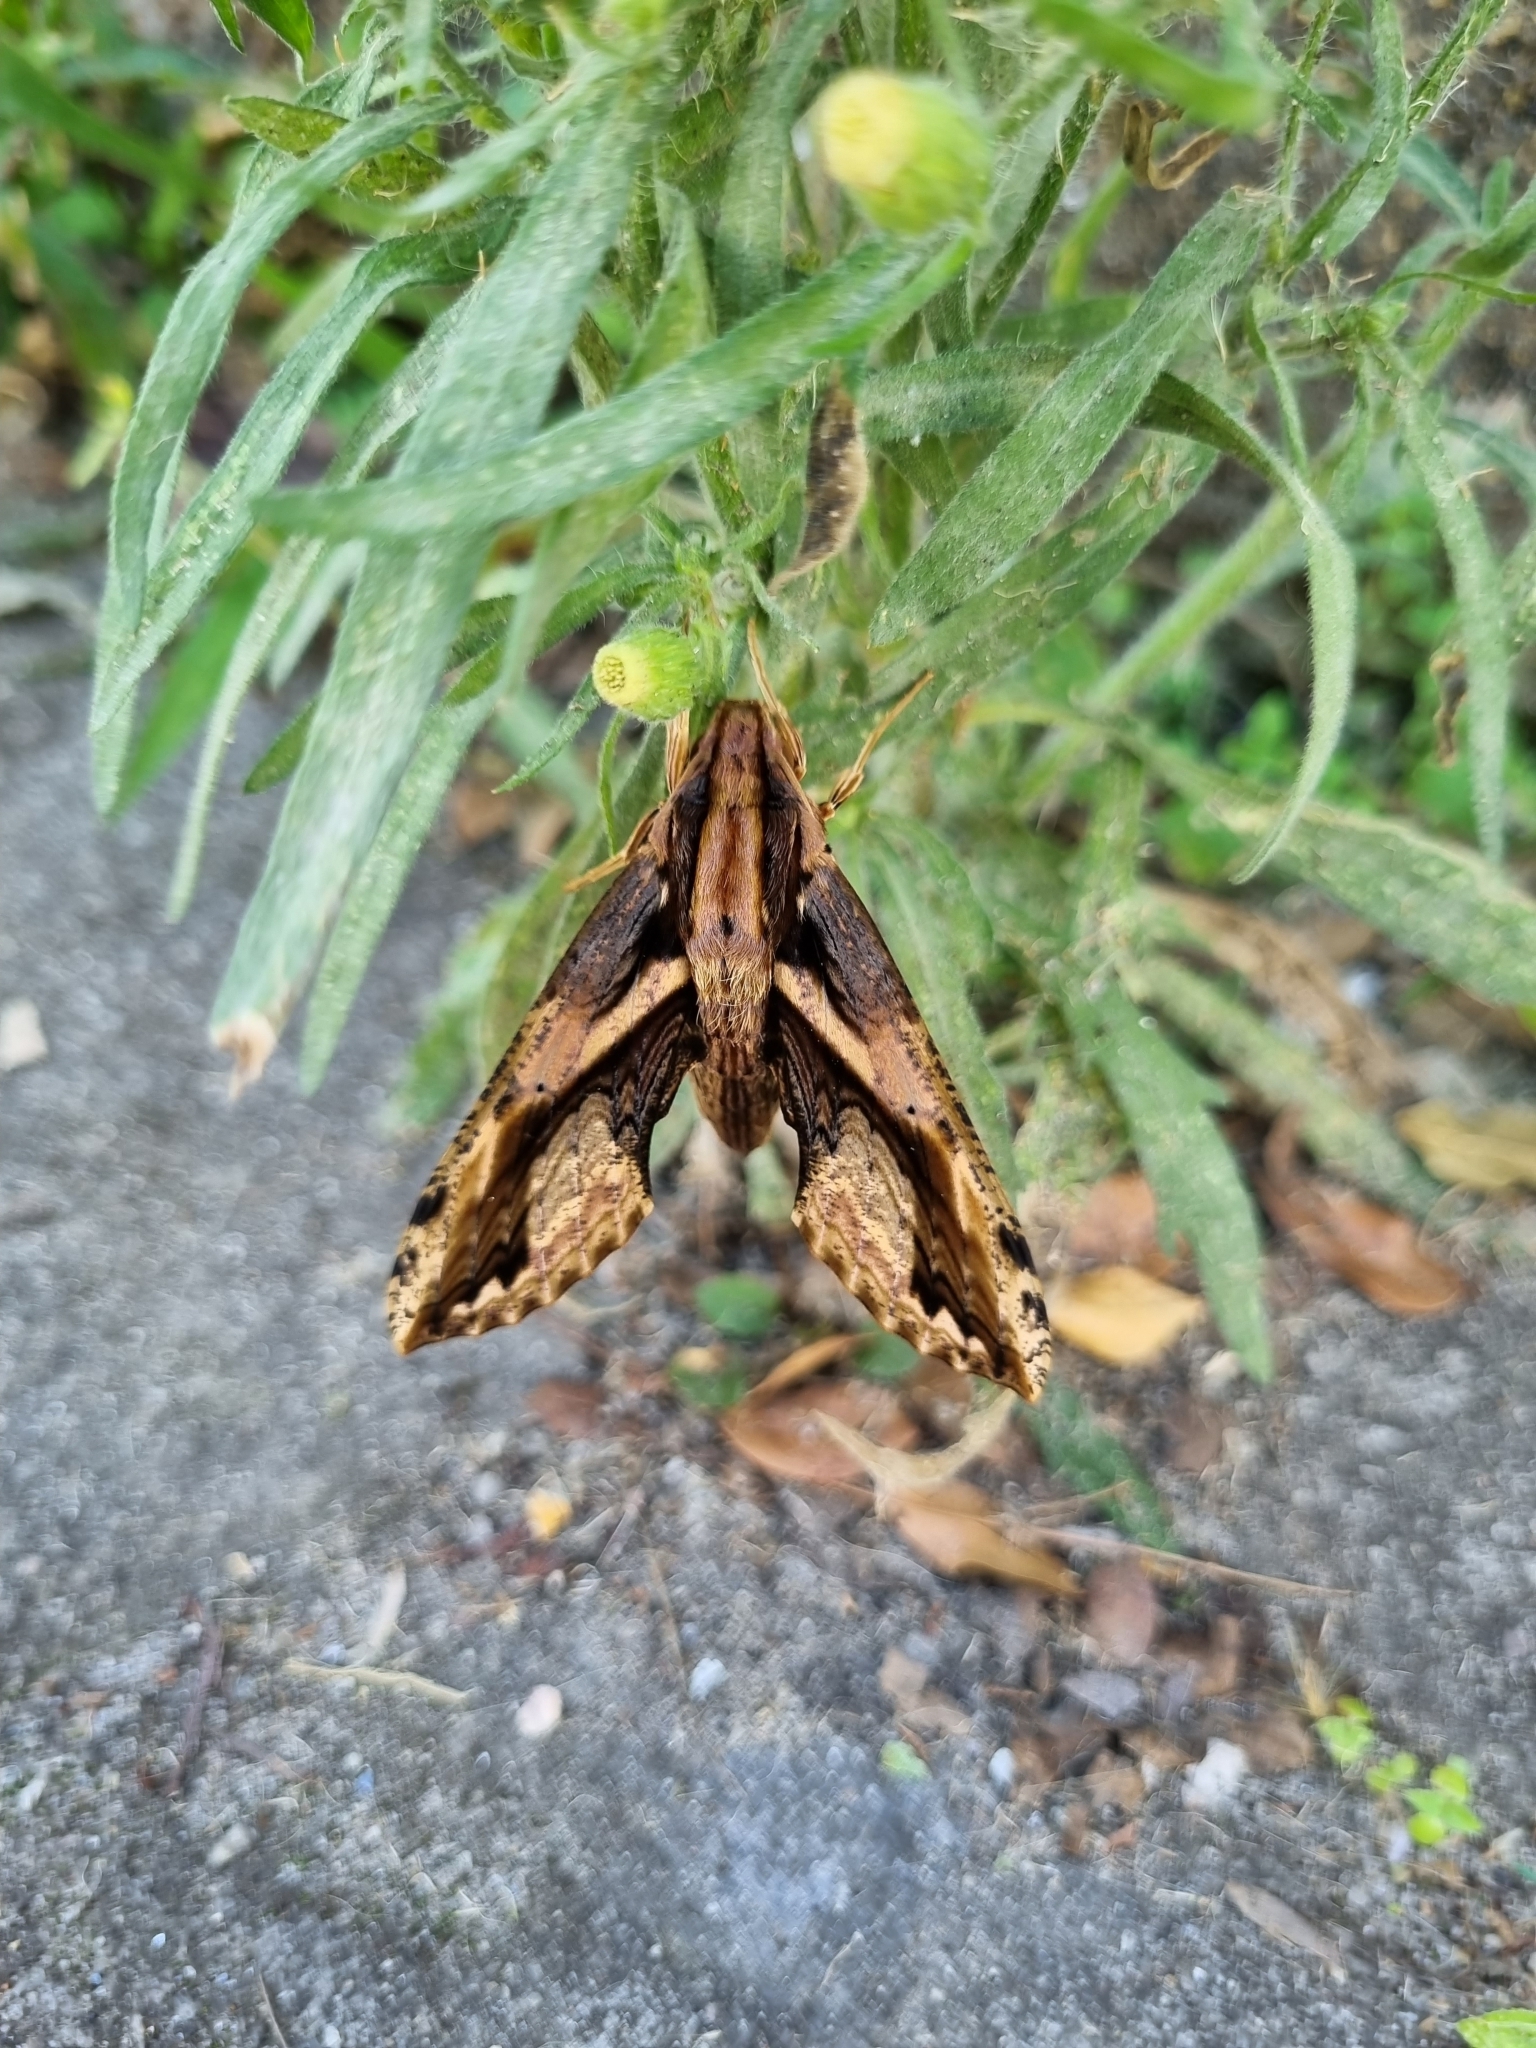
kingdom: Animalia
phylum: Arthropoda
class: Insecta
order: Lepidoptera
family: Sphingidae
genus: Xylophanes
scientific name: Xylophanes crenulatus
